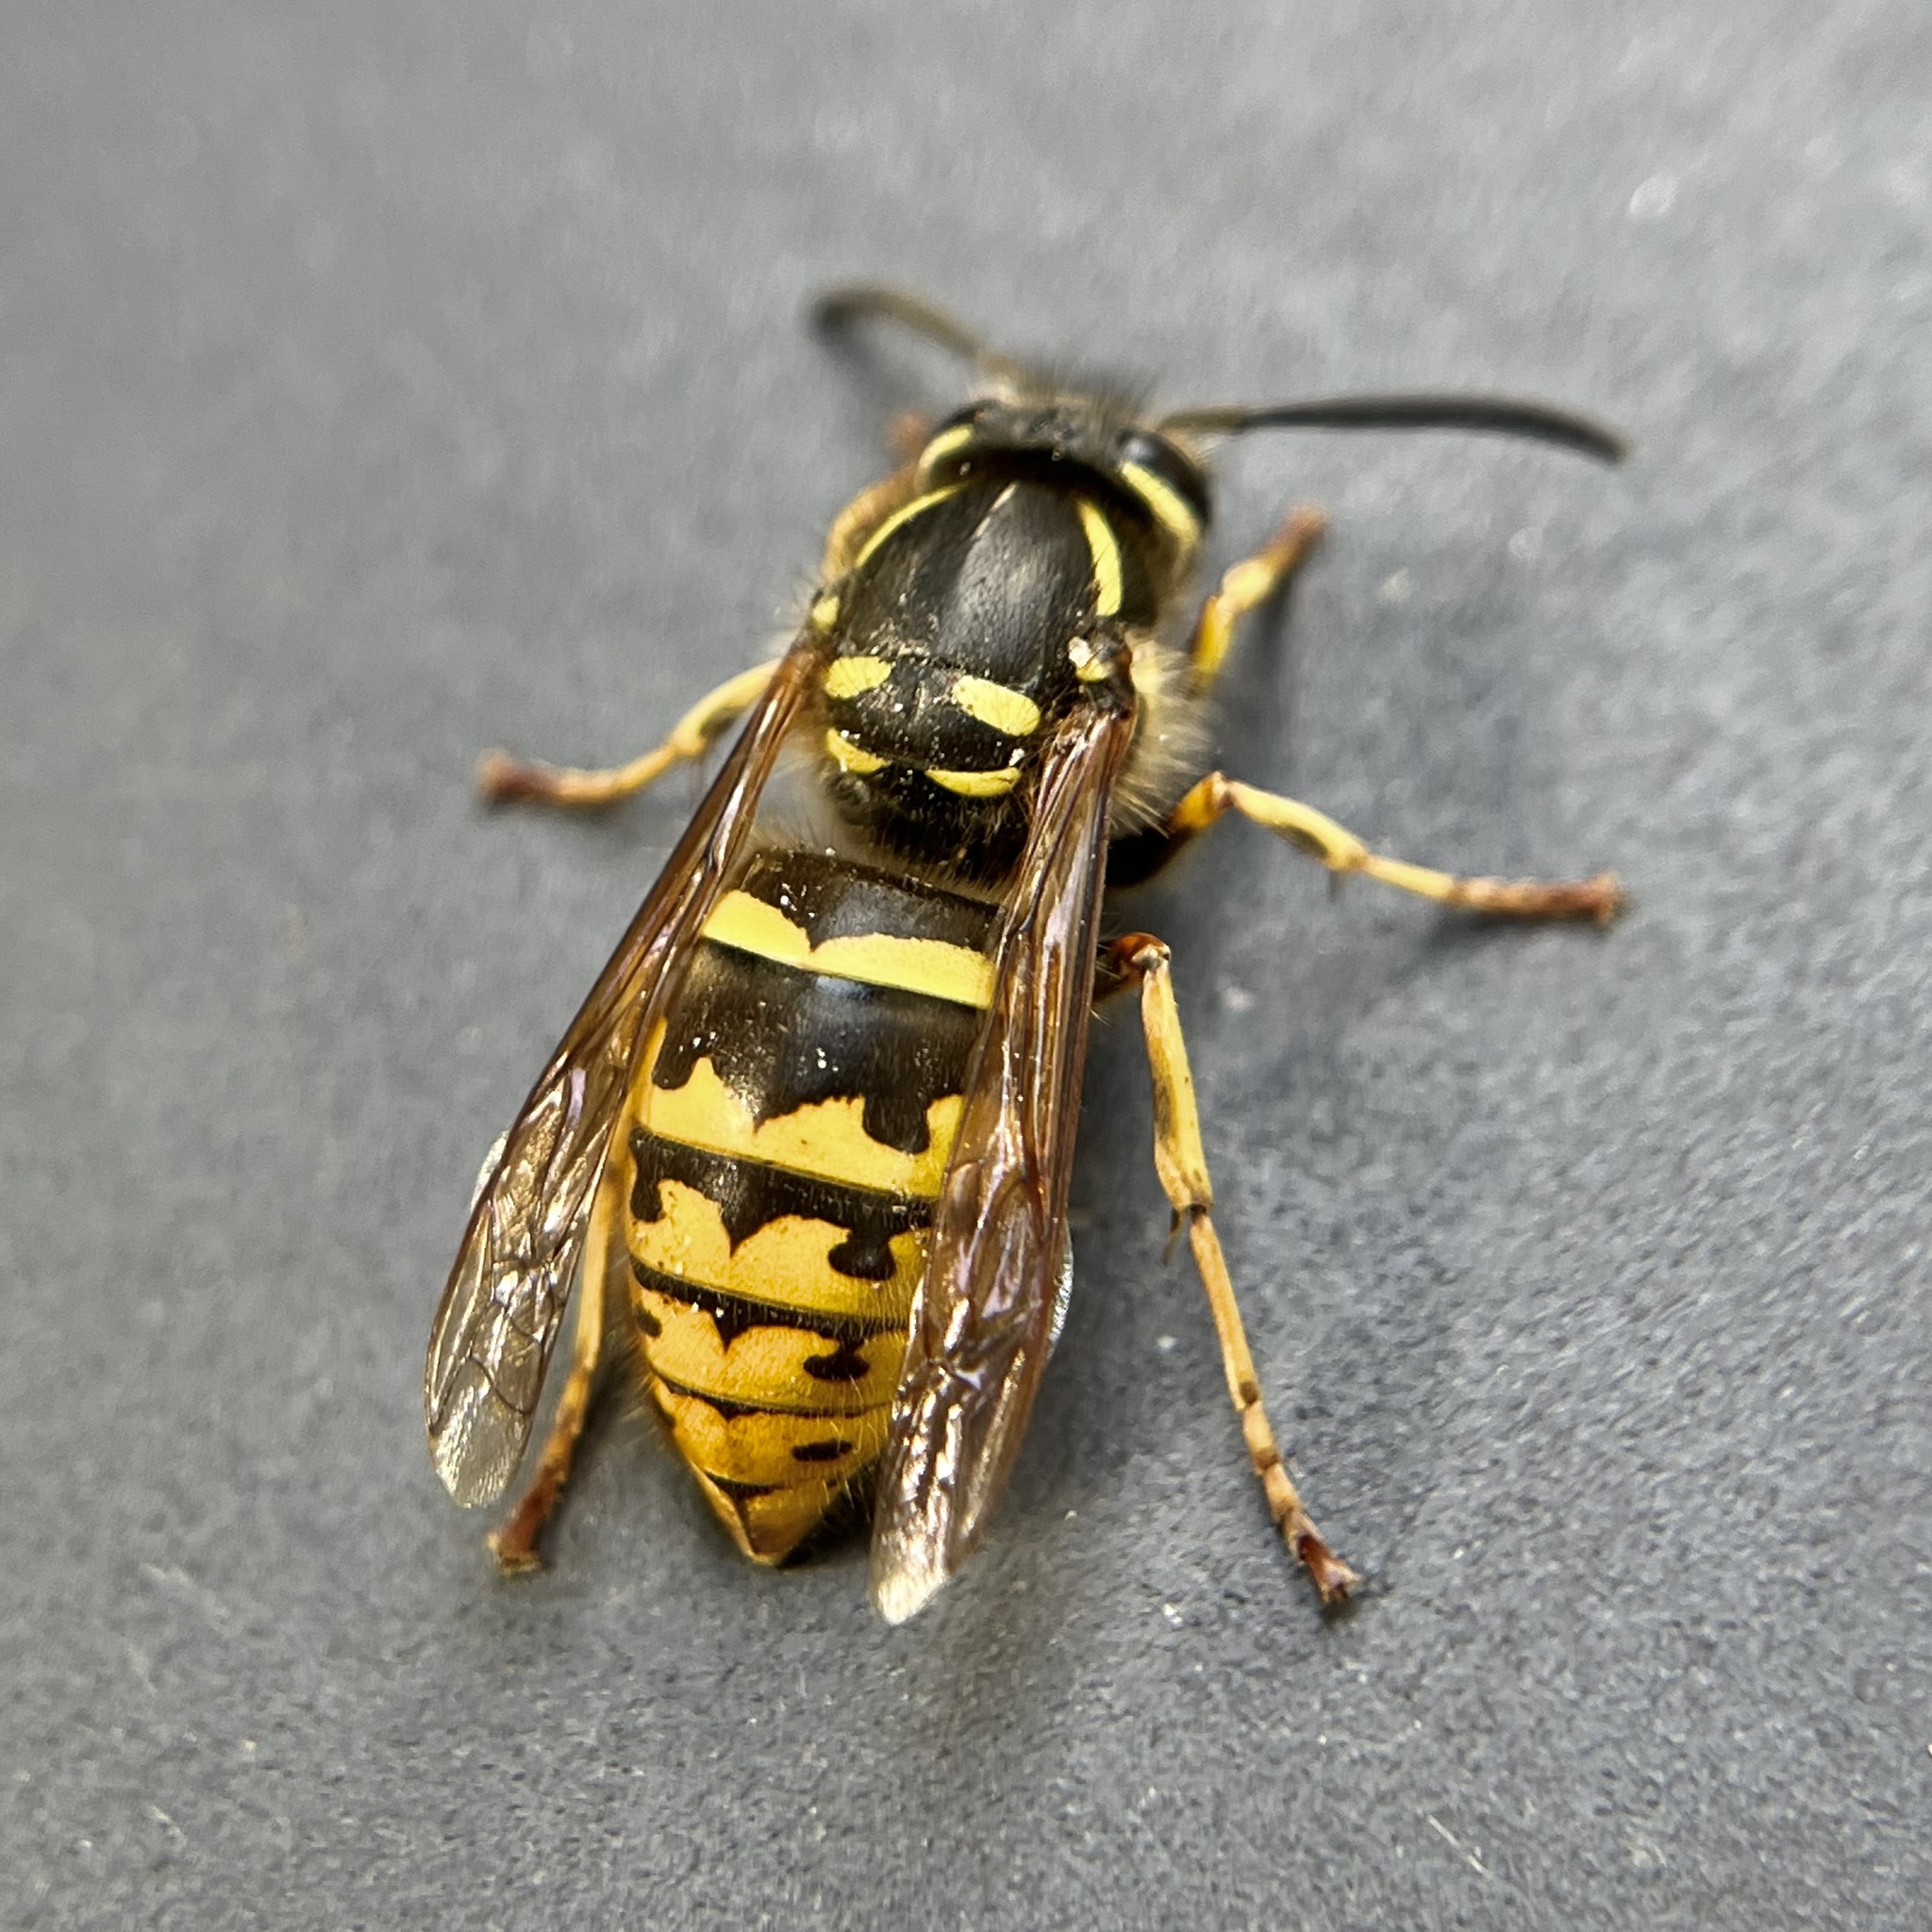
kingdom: Animalia
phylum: Arthropoda
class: Insecta
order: Hymenoptera
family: Vespidae
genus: Vespula
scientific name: Vespula vulgaris
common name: Common wasp
